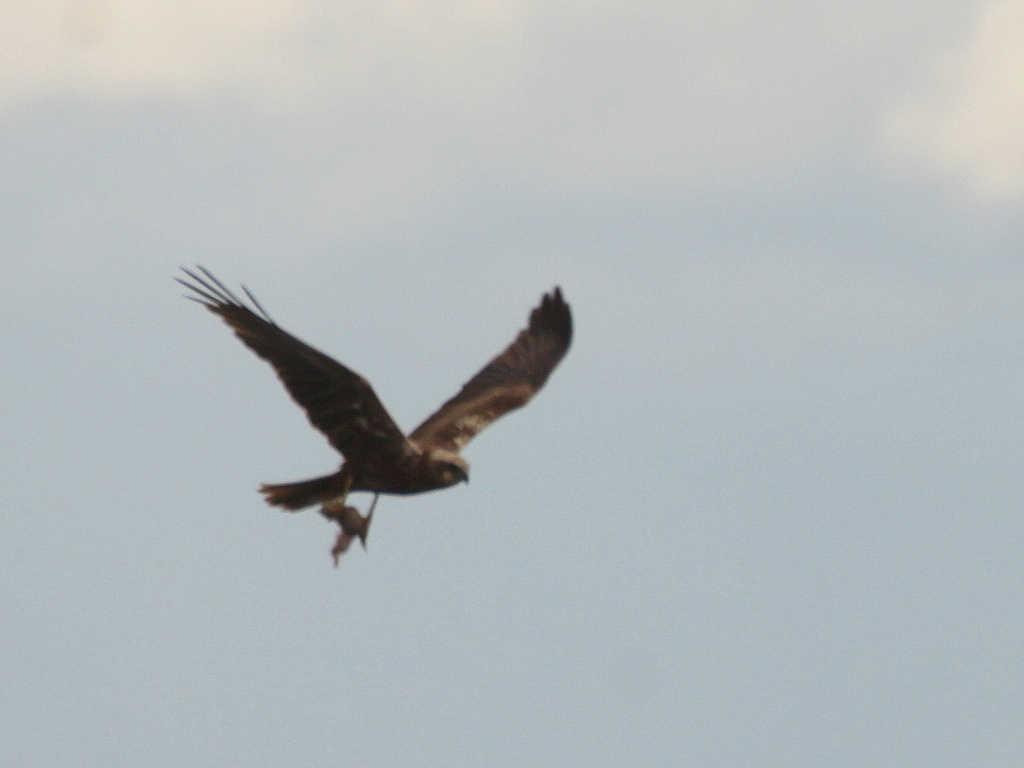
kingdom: Animalia
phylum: Chordata
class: Aves
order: Accipitriformes
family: Accipitridae
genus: Circus
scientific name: Circus aeruginosus
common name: Western marsh harrier
